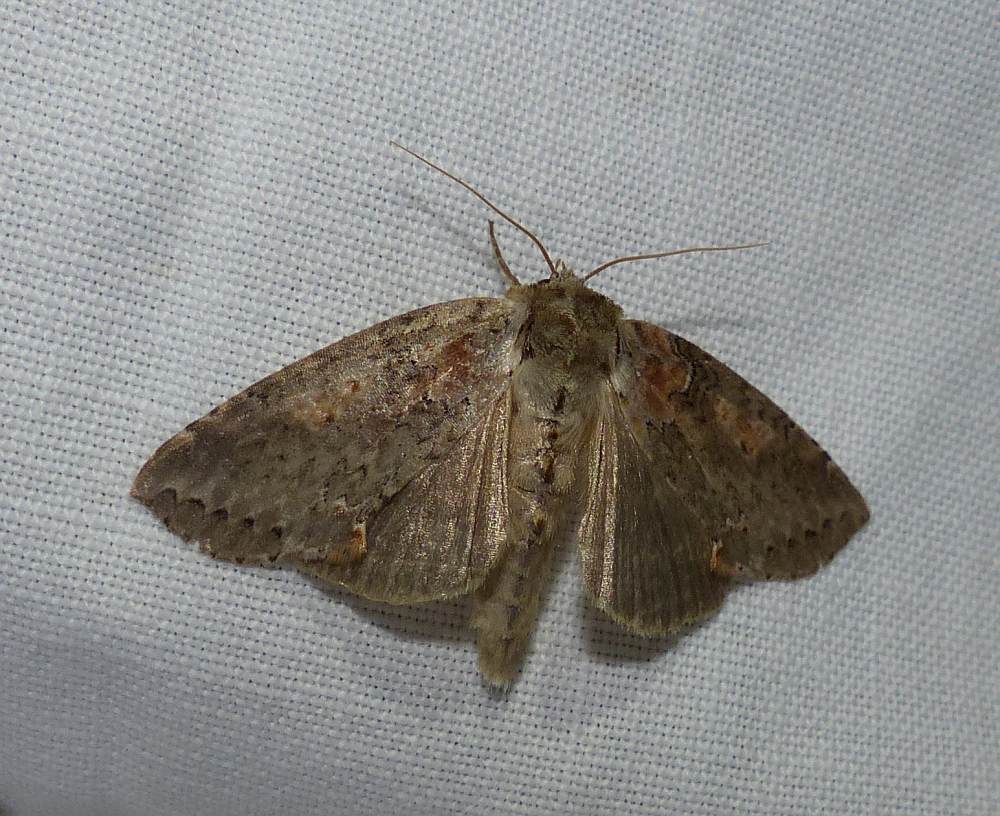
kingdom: Animalia
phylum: Arthropoda
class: Insecta
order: Lepidoptera
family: Drepanidae
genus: Pseudothyatira
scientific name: Pseudothyatira cymatophoroides
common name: Tufted thyatirid moth
